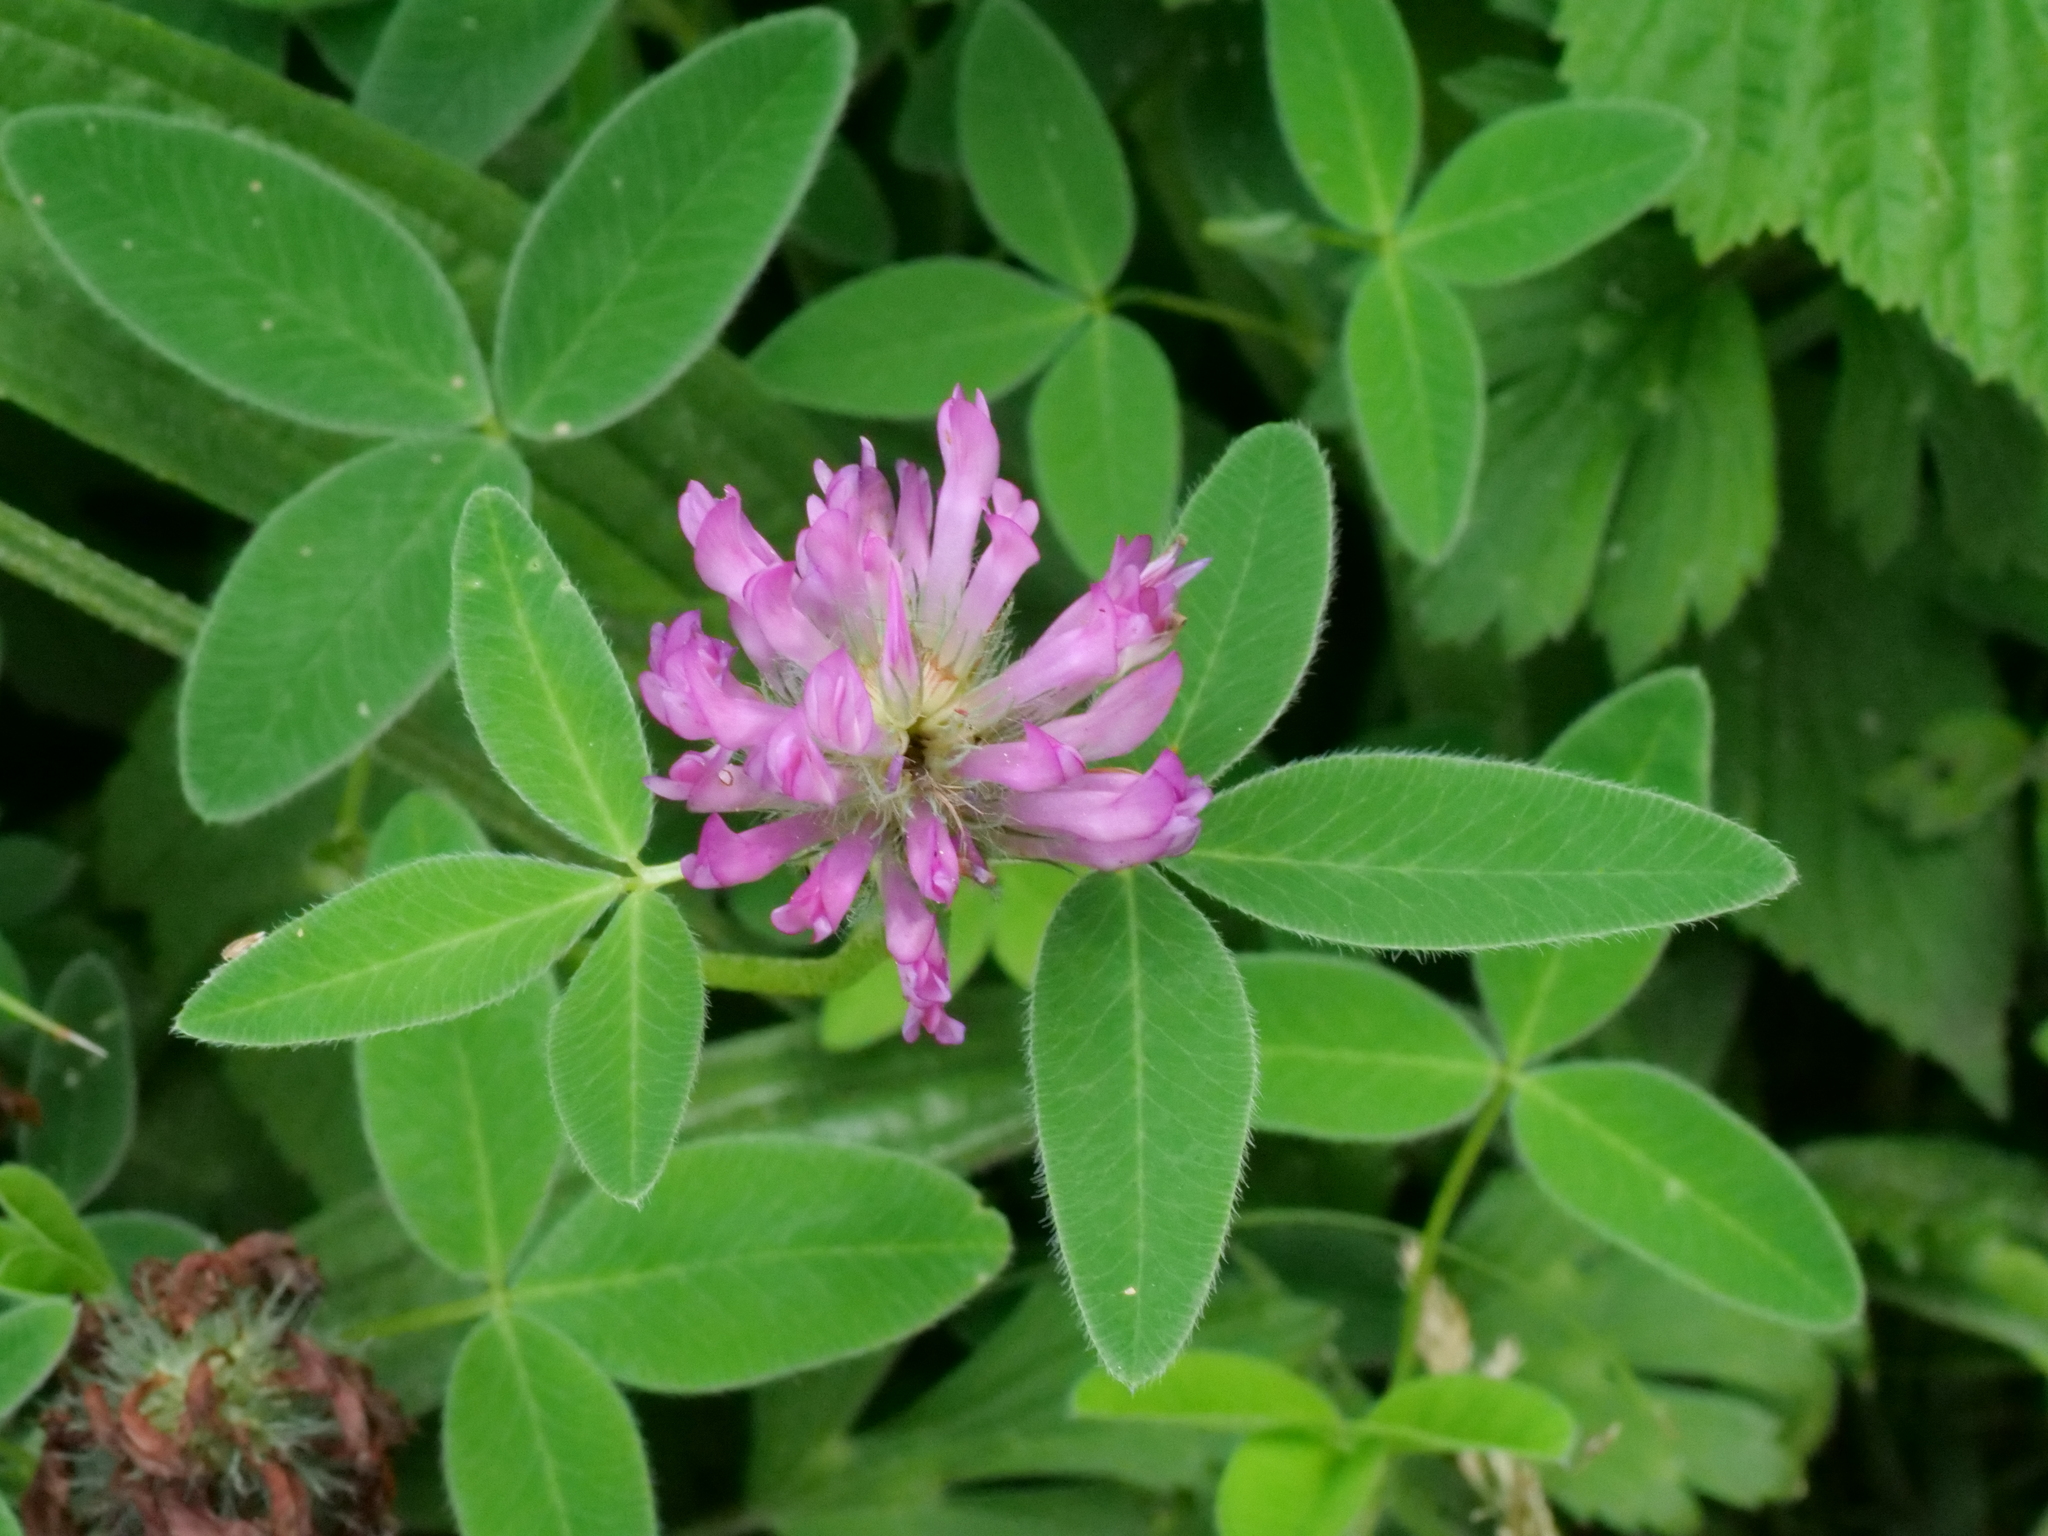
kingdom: Plantae
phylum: Tracheophyta
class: Magnoliopsida
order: Fabales
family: Fabaceae
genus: Trifolium
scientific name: Trifolium medium
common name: Zigzag clover
